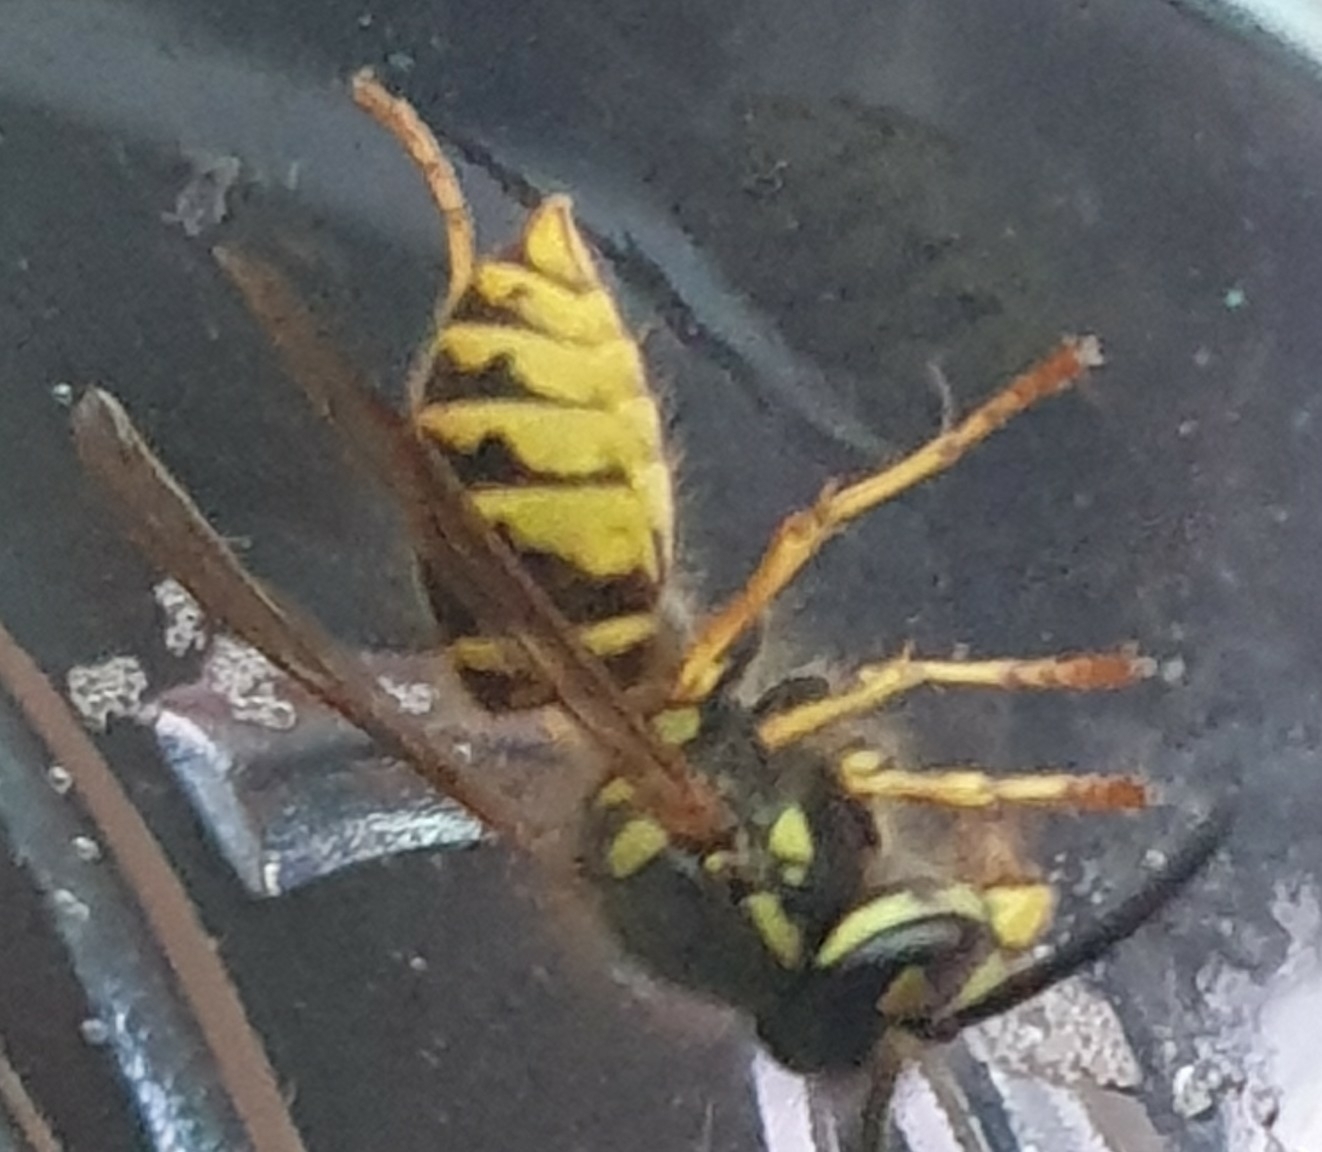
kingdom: Animalia
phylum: Arthropoda
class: Insecta
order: Hymenoptera
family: Vespidae
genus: Vespula
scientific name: Vespula vulgaris
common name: Common wasp
